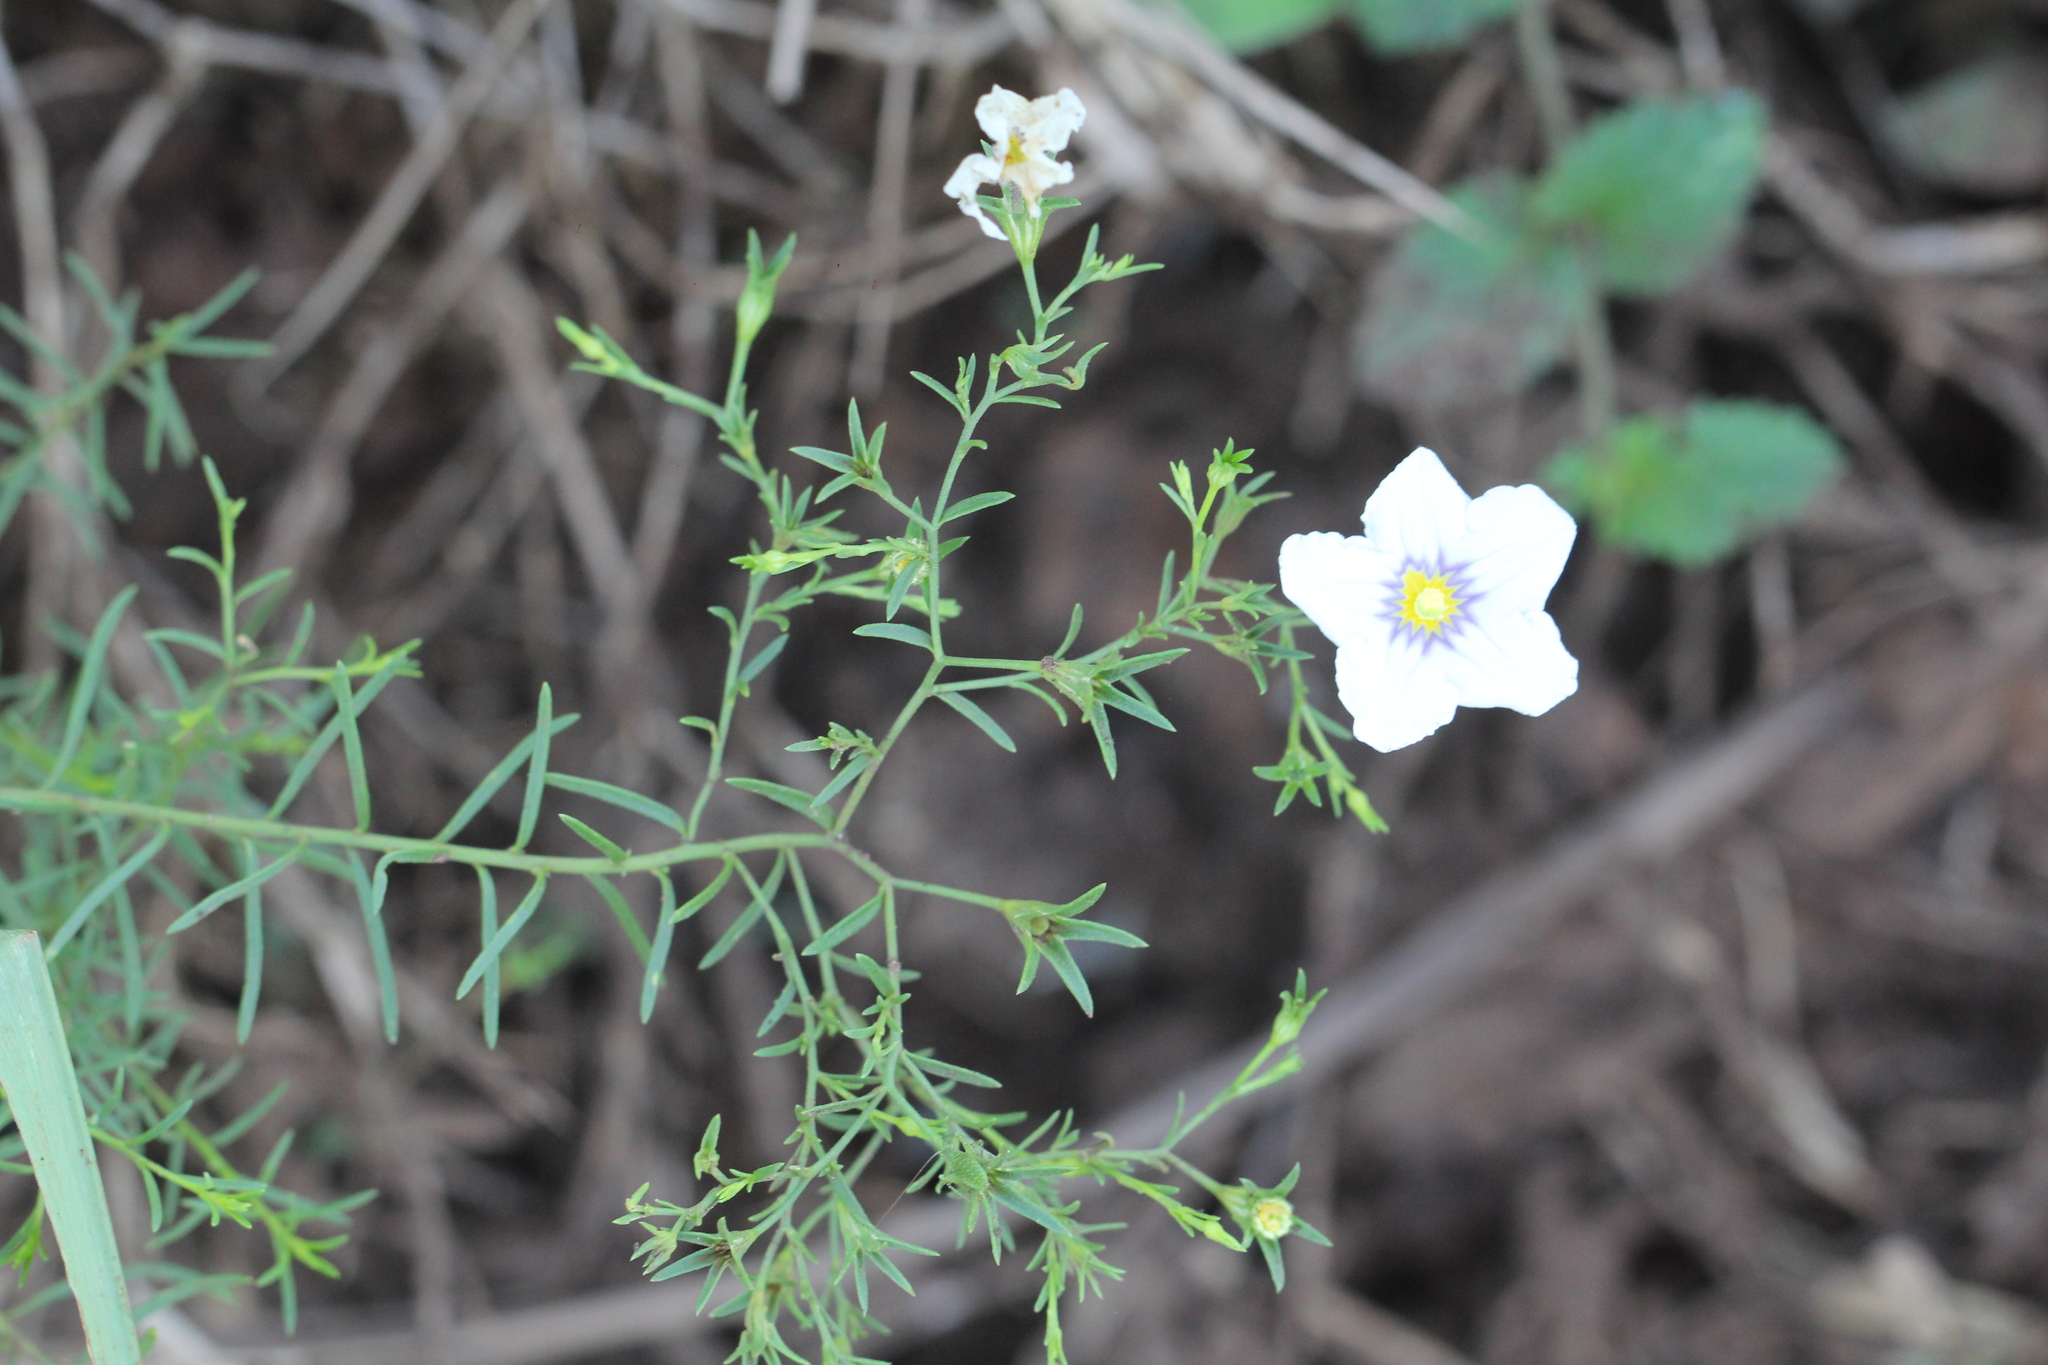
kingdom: Plantae
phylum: Tracheophyta
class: Magnoliopsida
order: Solanales
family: Solanaceae
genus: Nierembergia
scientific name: Nierembergia scoparia
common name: Broom cupflower
